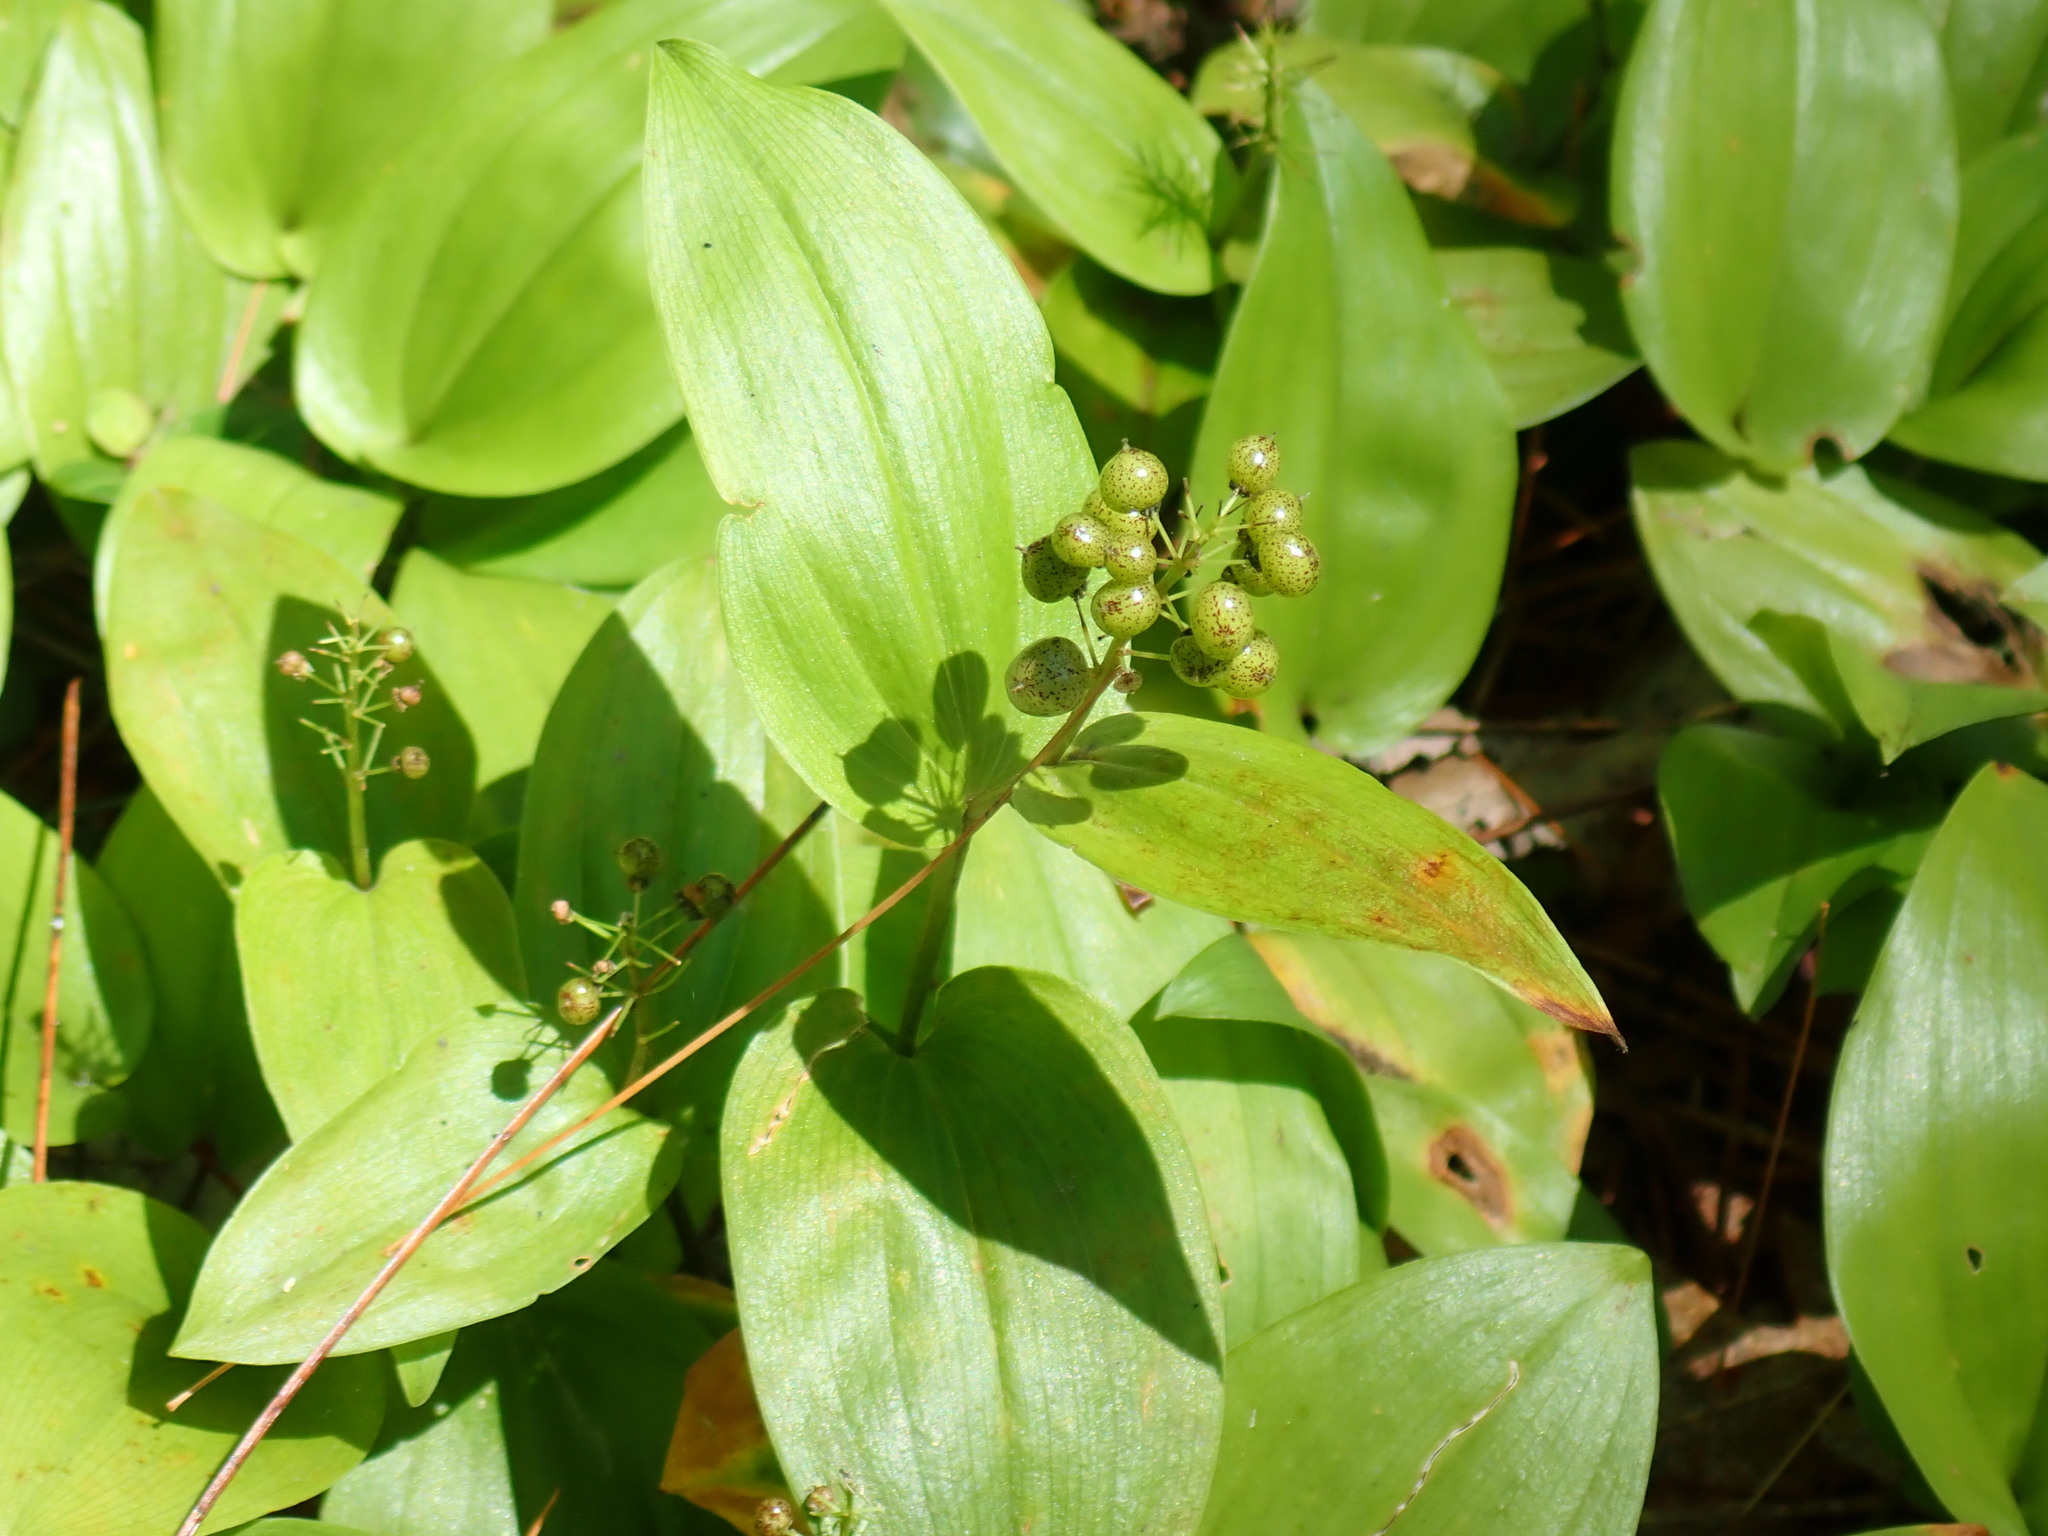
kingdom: Plantae
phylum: Tracheophyta
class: Liliopsida
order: Asparagales
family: Asparagaceae
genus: Maianthemum
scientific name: Maianthemum canadense
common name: False lily-of-the-valley
